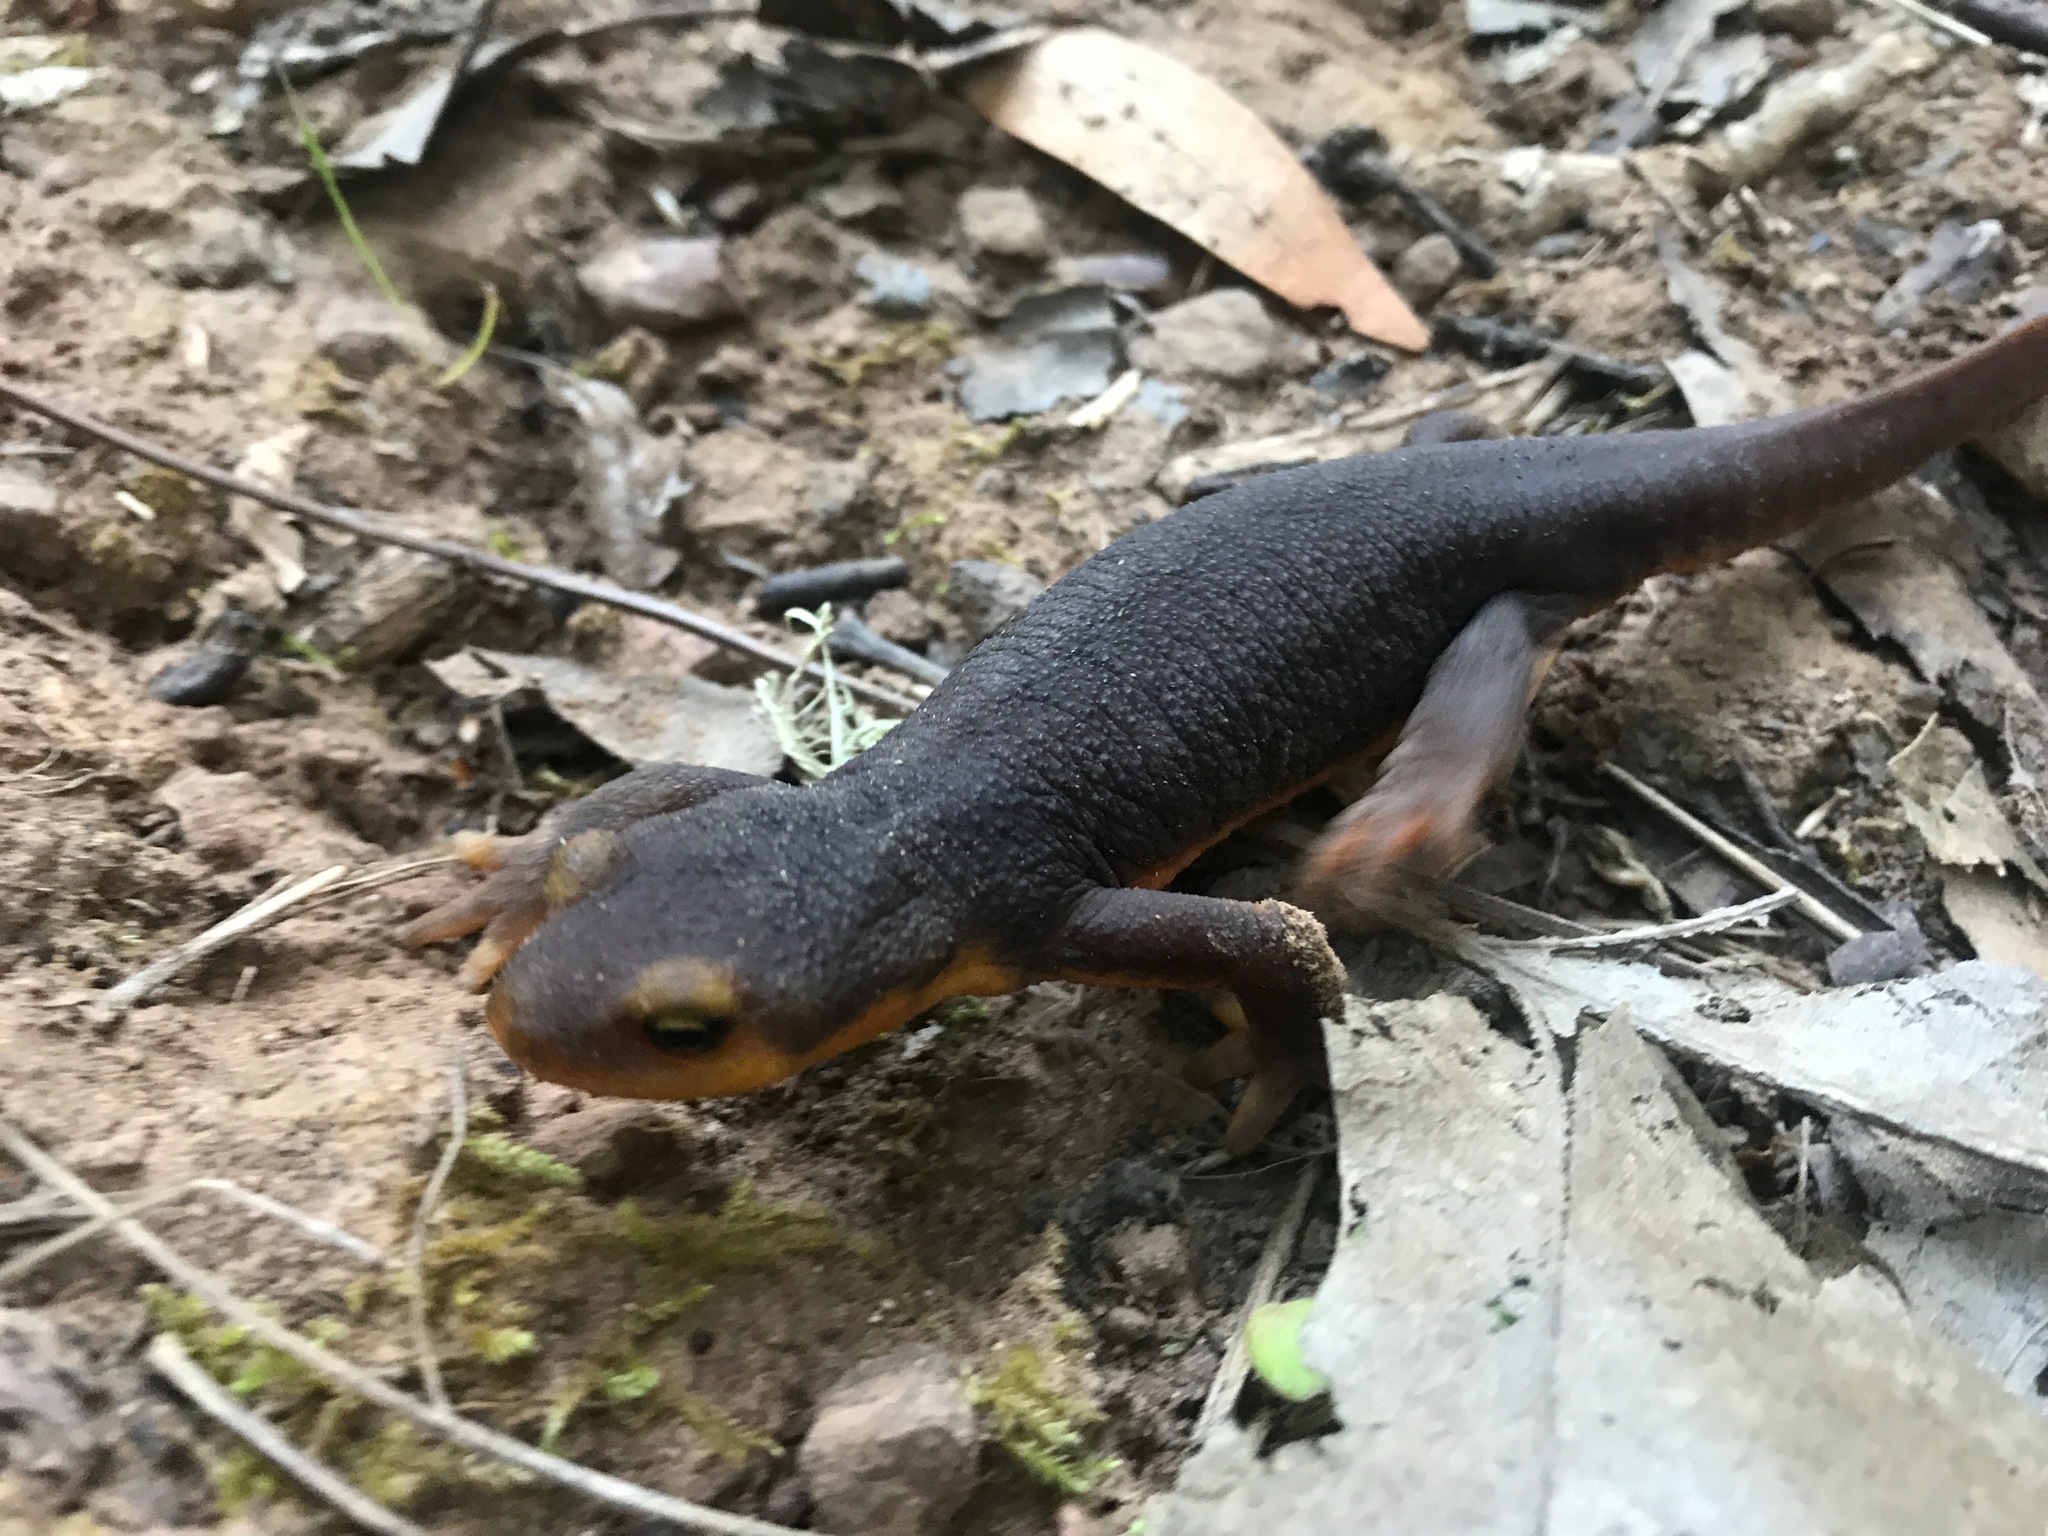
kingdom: Animalia
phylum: Chordata
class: Amphibia
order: Caudata
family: Salamandridae
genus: Taricha
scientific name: Taricha torosa
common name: California newt
